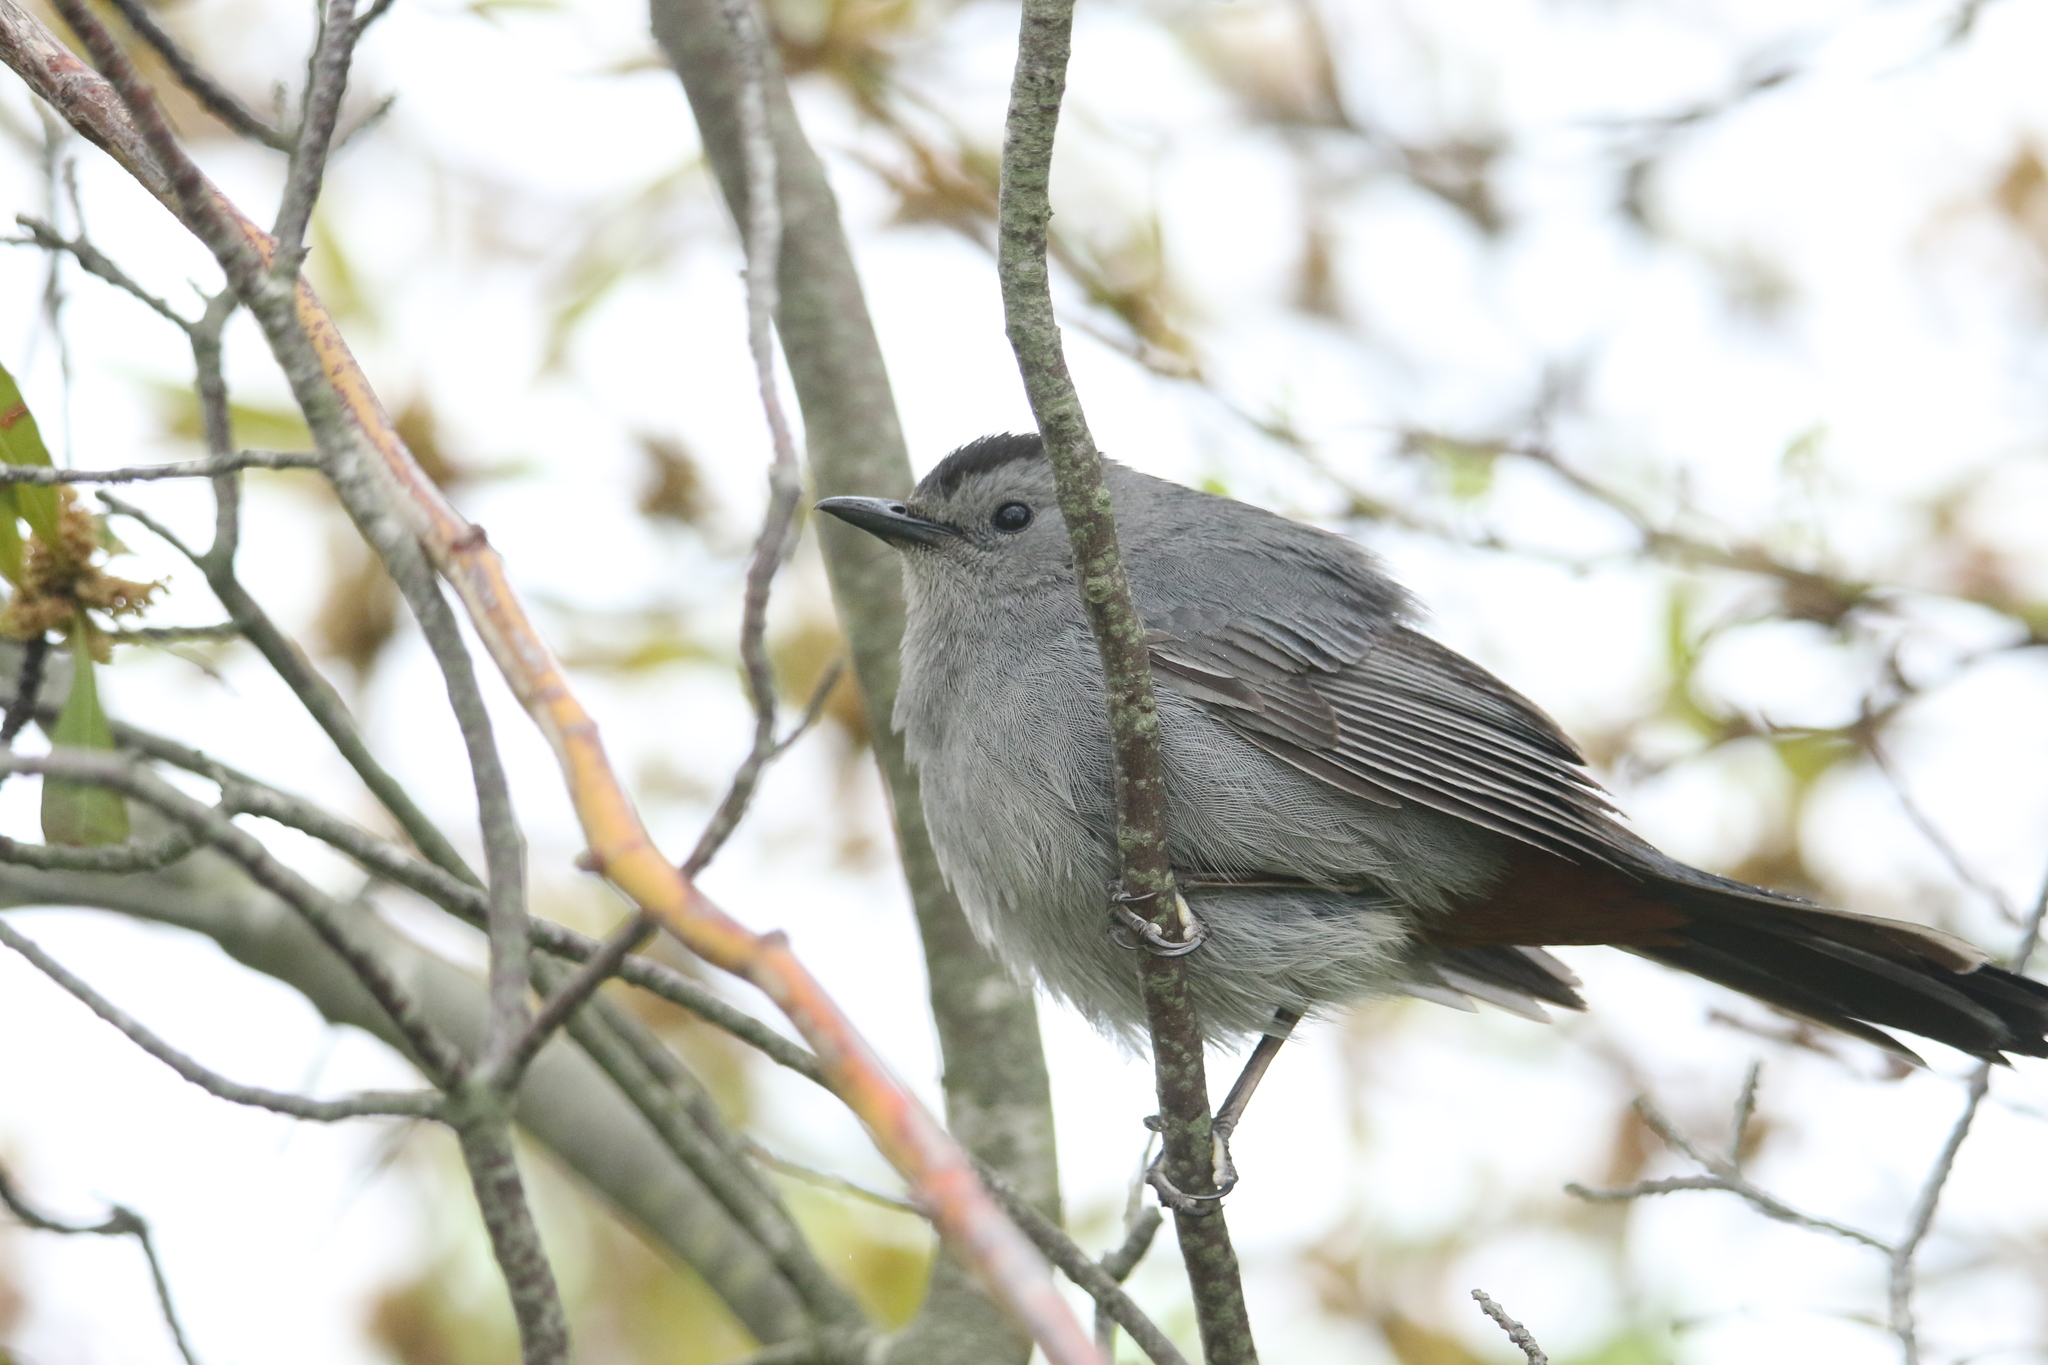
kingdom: Animalia
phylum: Chordata
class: Aves
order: Passeriformes
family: Mimidae
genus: Dumetella
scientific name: Dumetella carolinensis
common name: Gray catbird
